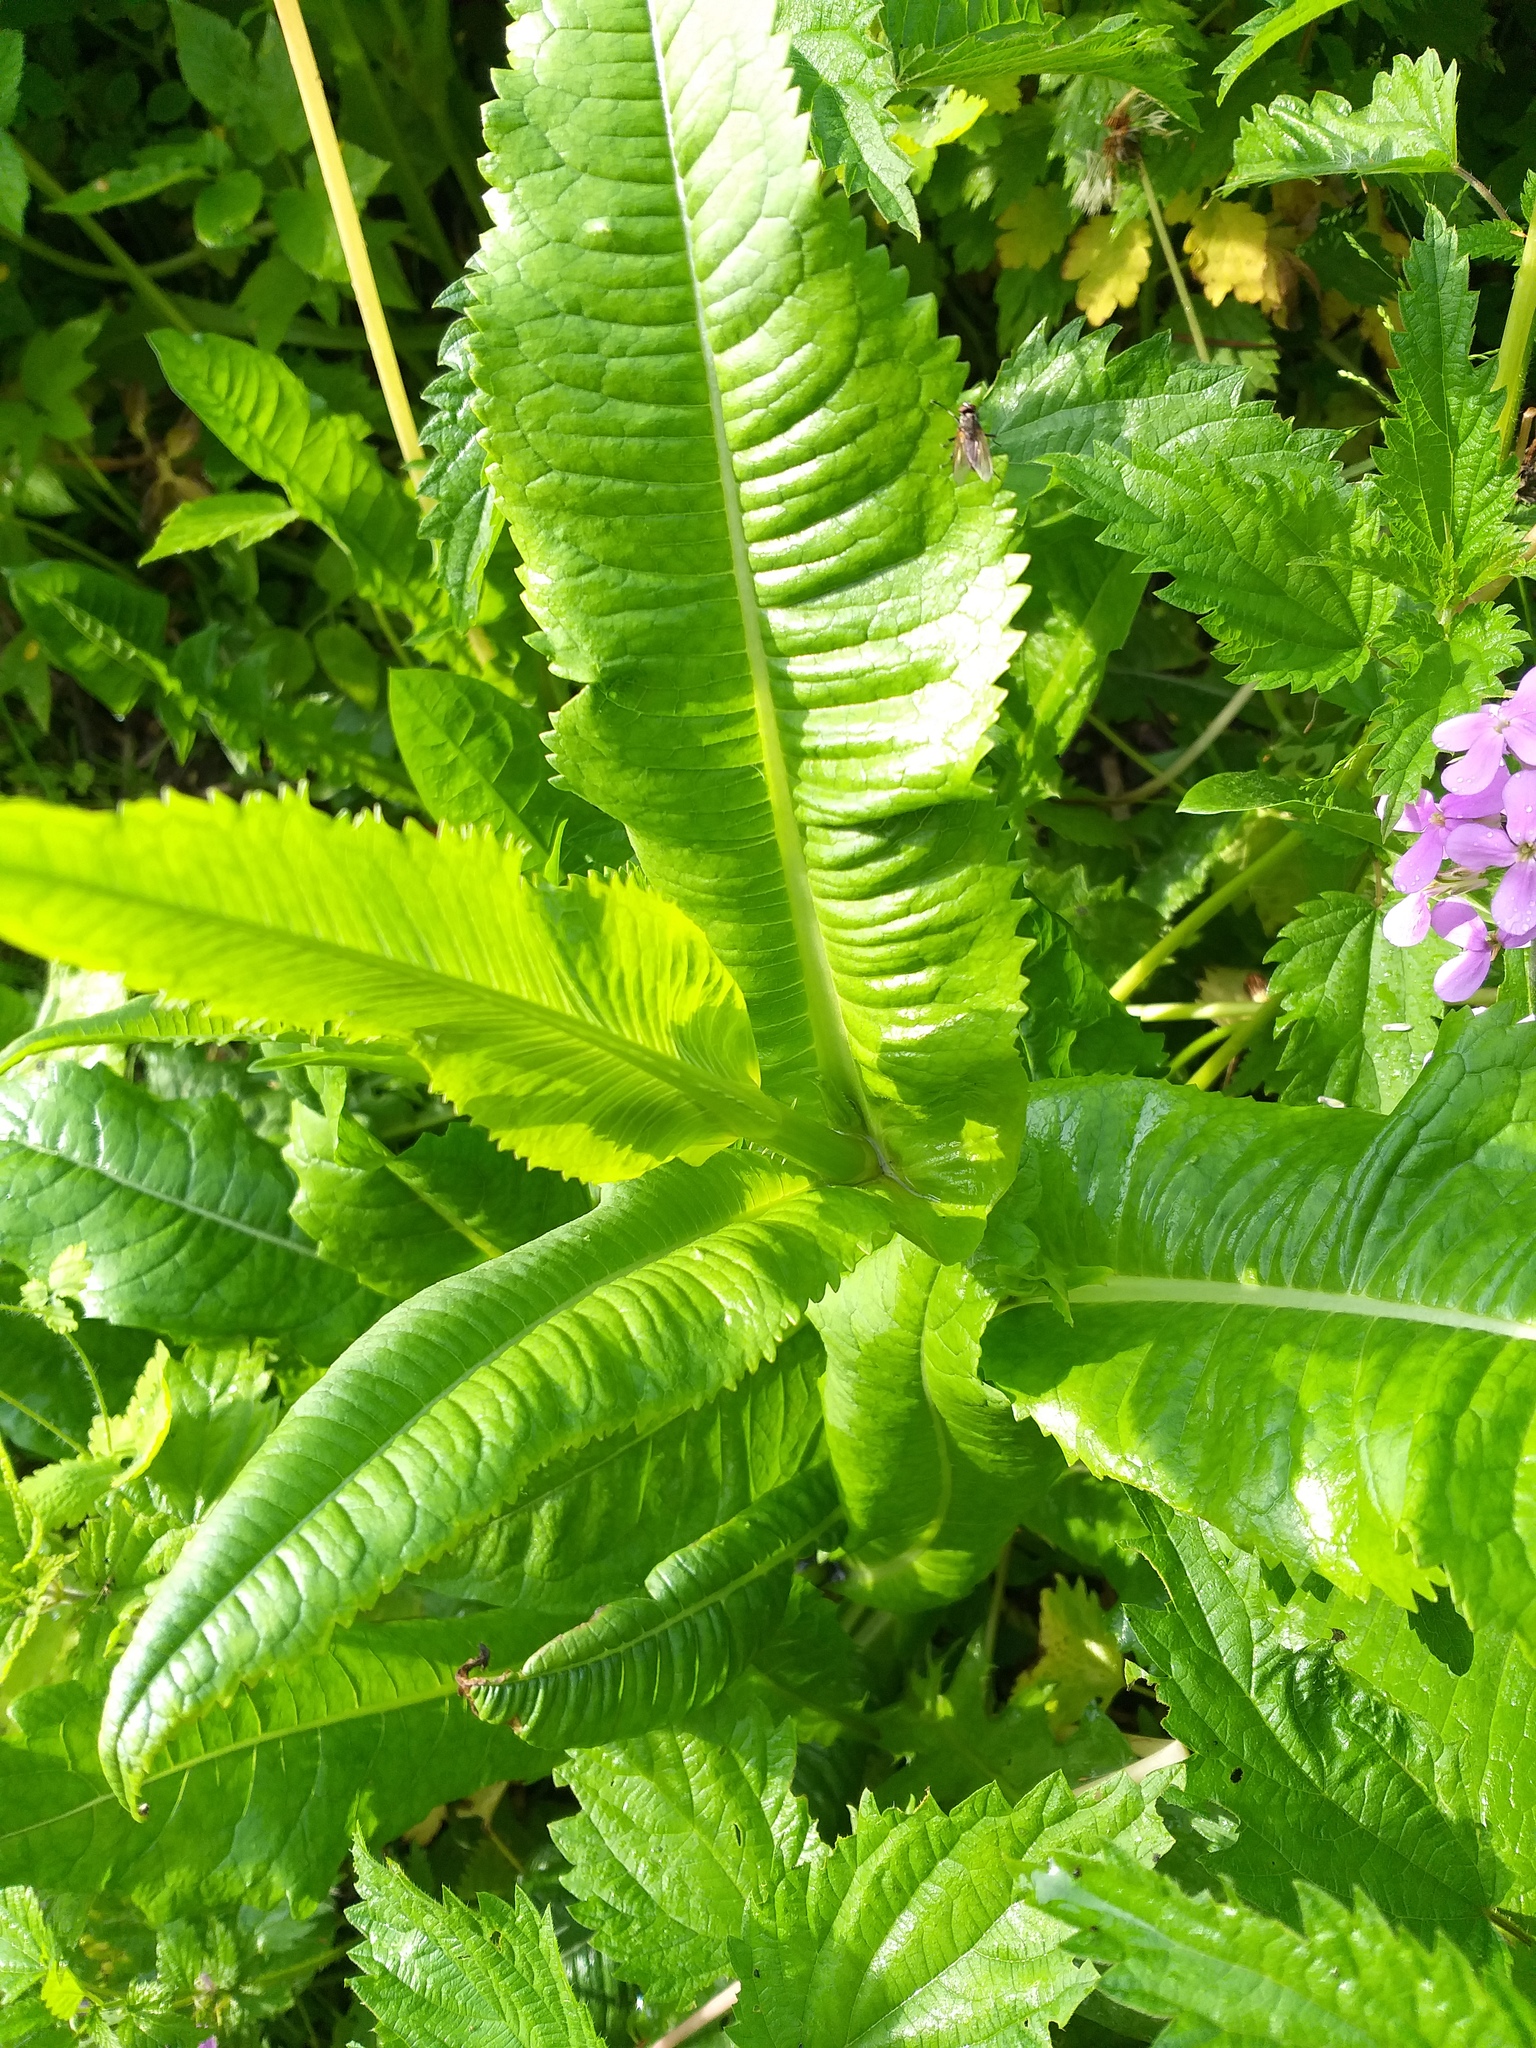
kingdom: Plantae
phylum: Tracheophyta
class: Magnoliopsida
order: Dipsacales
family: Caprifoliaceae
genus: Dipsacus
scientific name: Dipsacus fullonum
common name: Teasel
